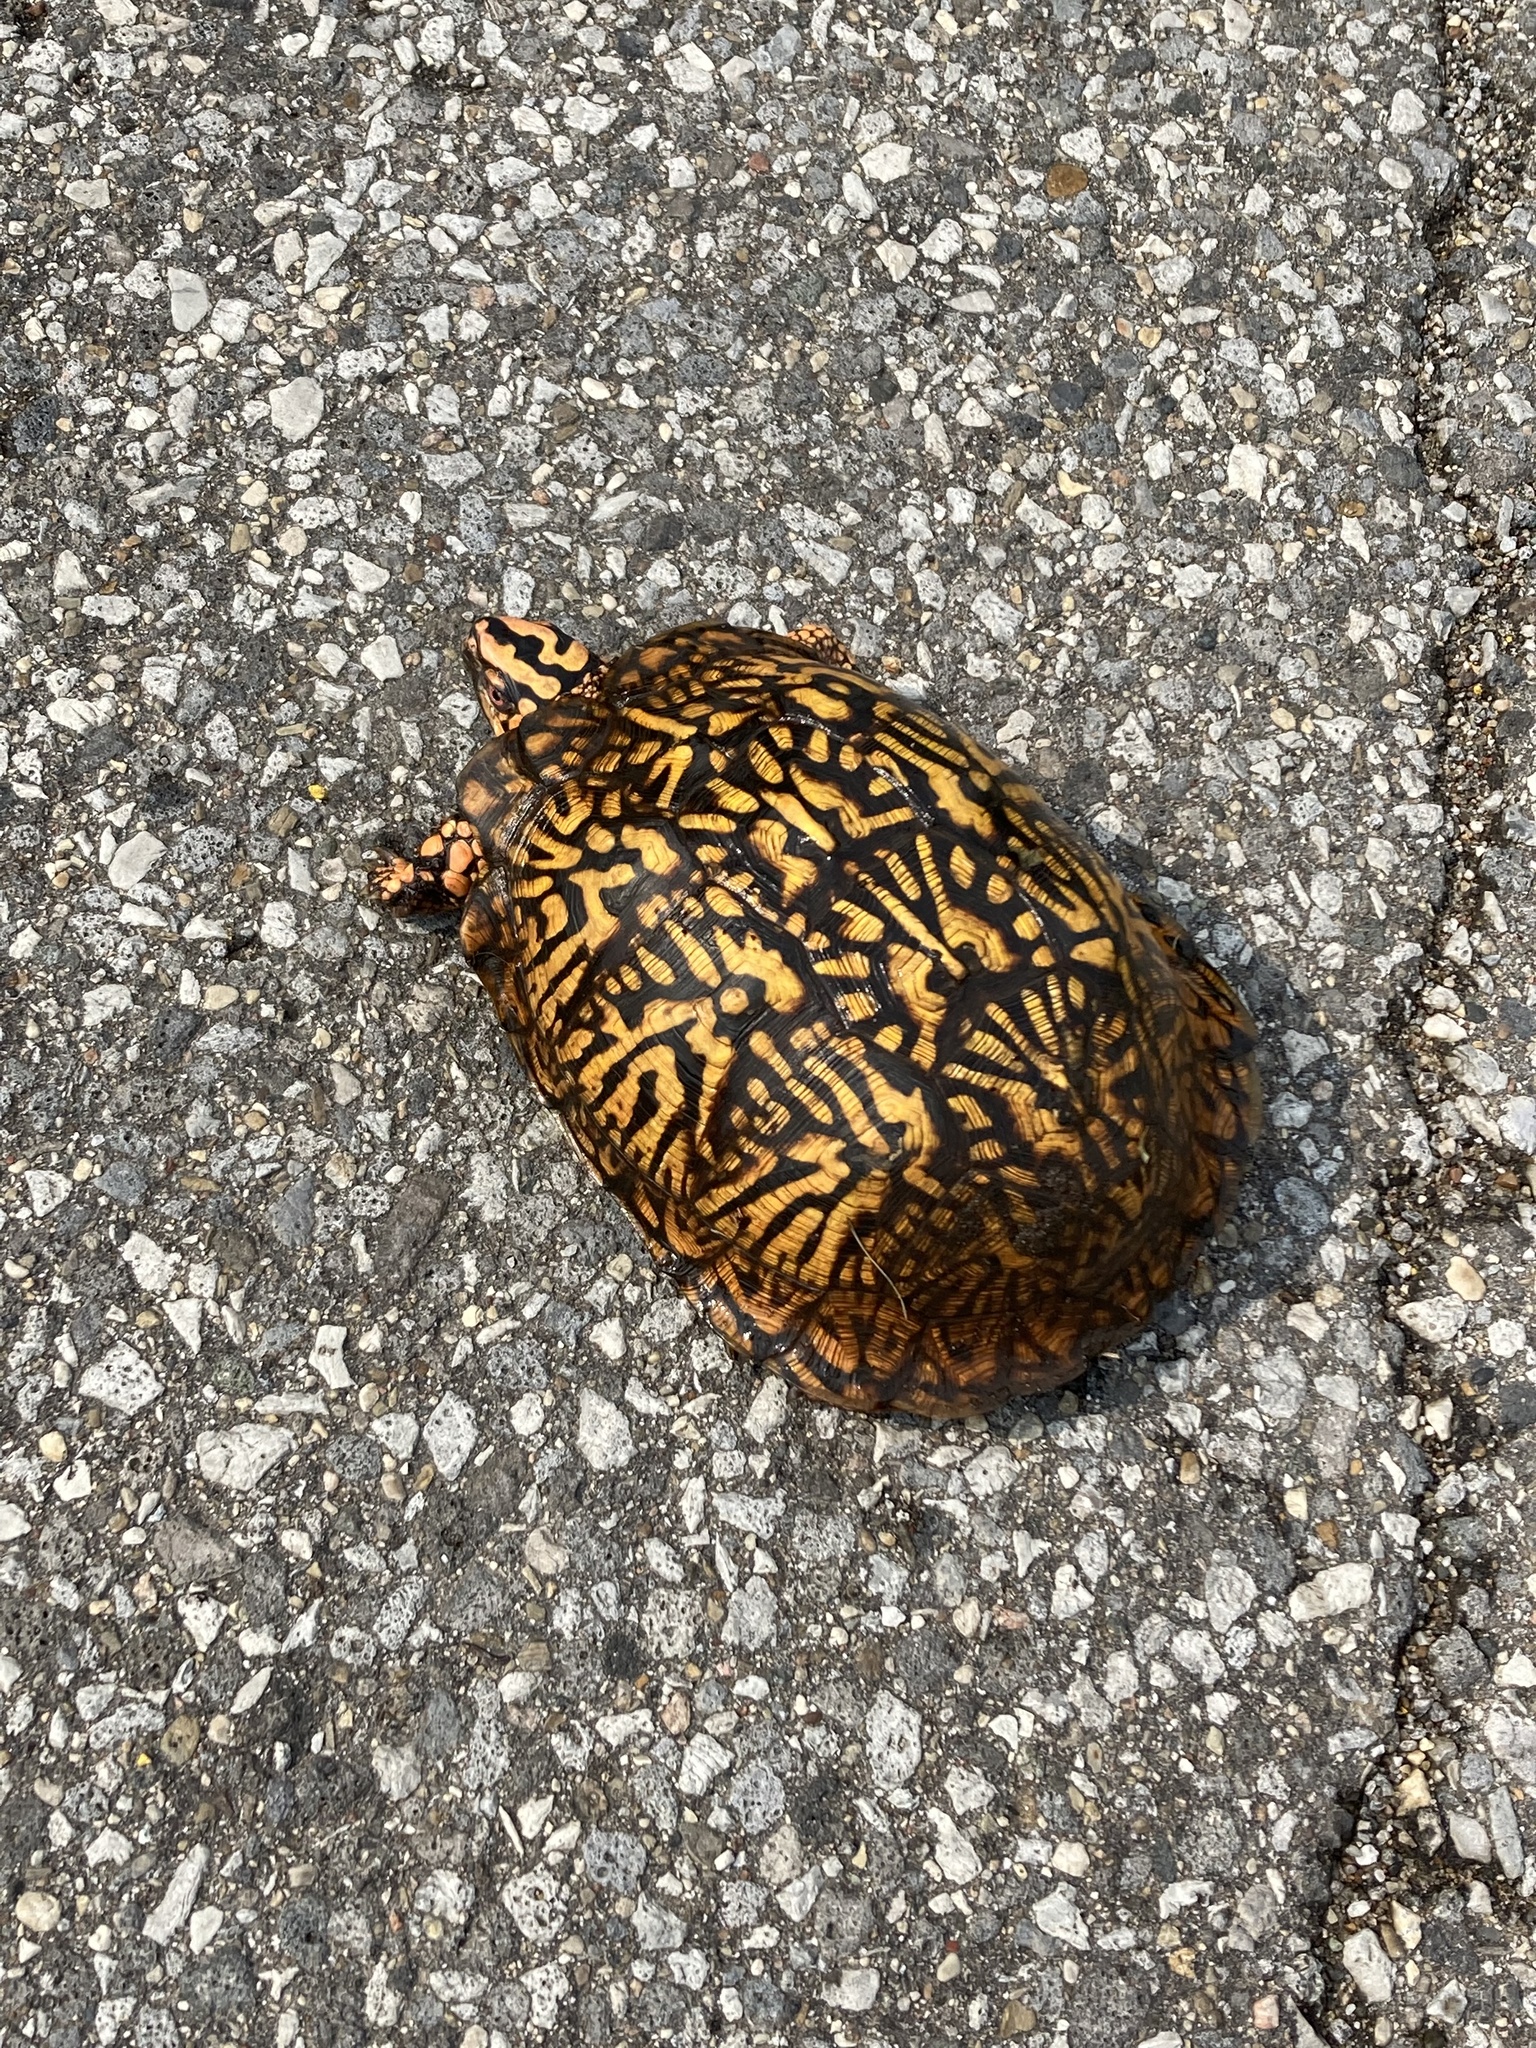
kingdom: Animalia
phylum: Chordata
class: Testudines
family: Emydidae
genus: Terrapene
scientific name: Terrapene carolina
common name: Common box turtle
